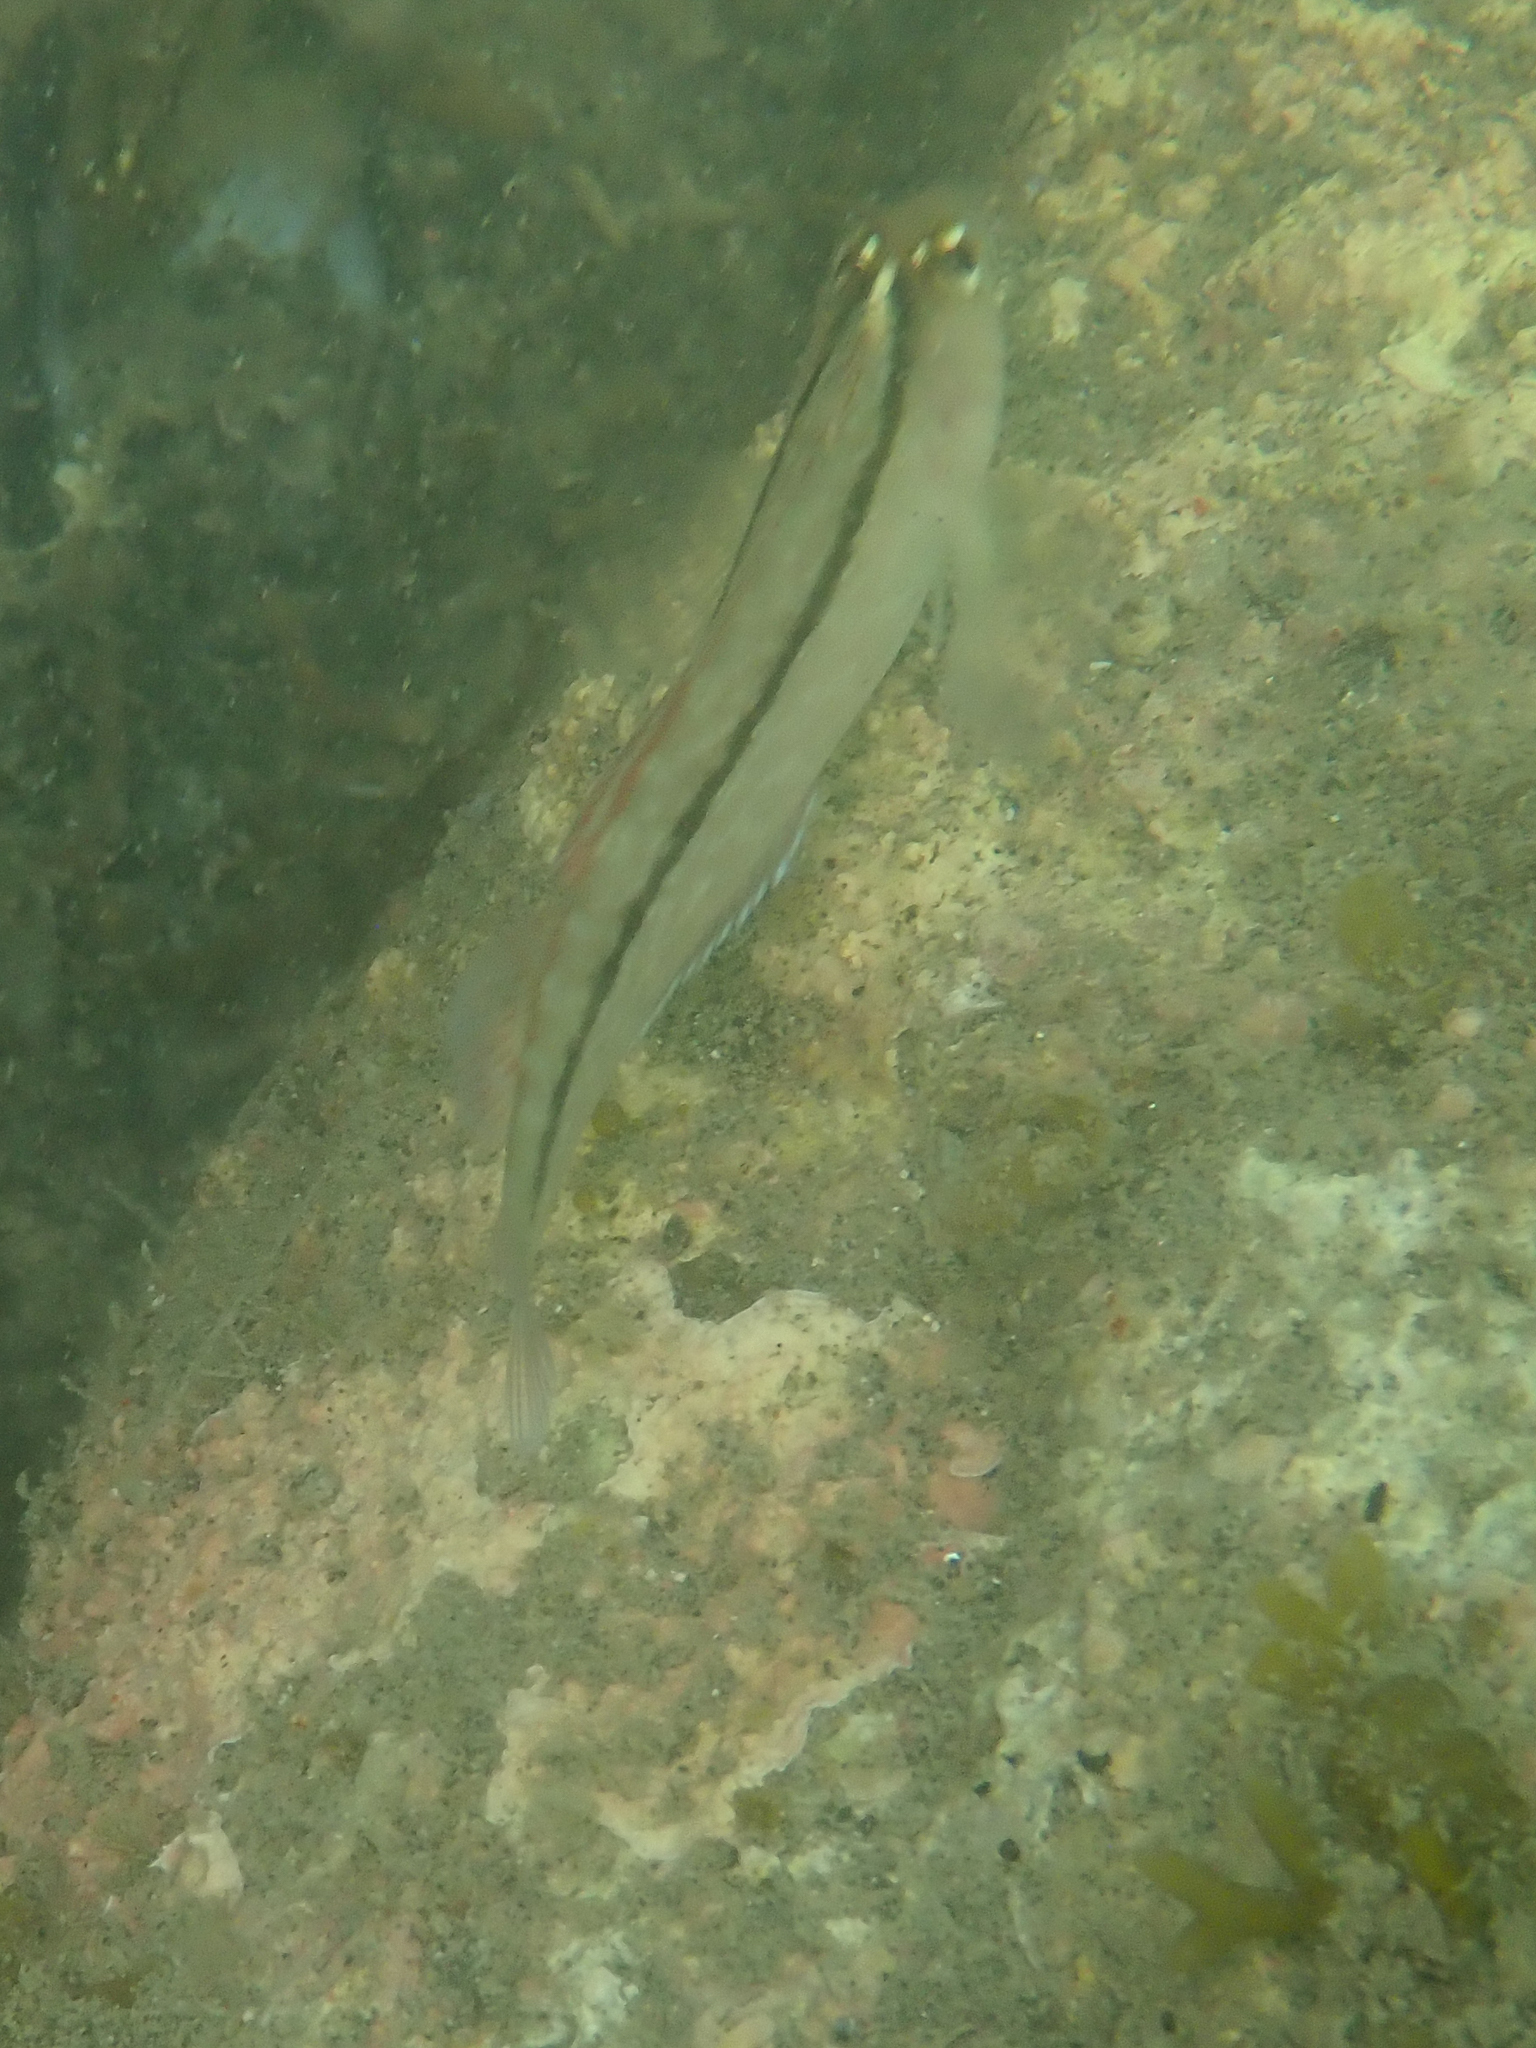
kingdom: Animalia
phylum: Chordata
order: Perciformes
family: Tripterygiidae
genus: Forsterygion
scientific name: Forsterygion lapillum
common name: Common triplefin
